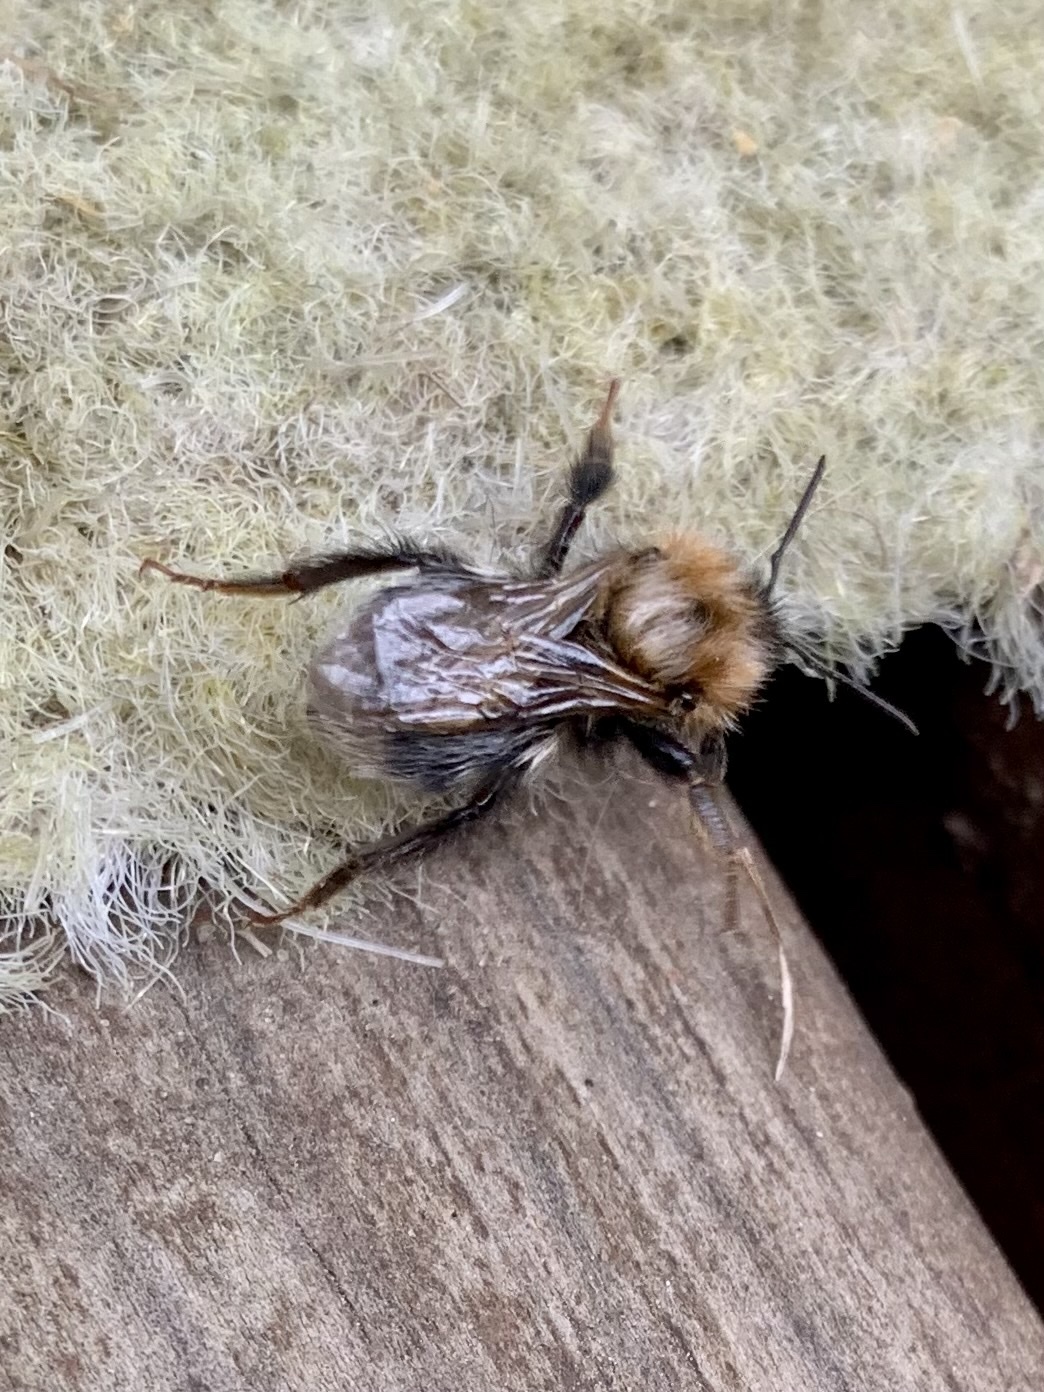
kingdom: Animalia
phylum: Arthropoda
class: Insecta
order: Hymenoptera
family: Apidae
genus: Bombus
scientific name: Bombus hypnorum
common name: New garden bumblebee
